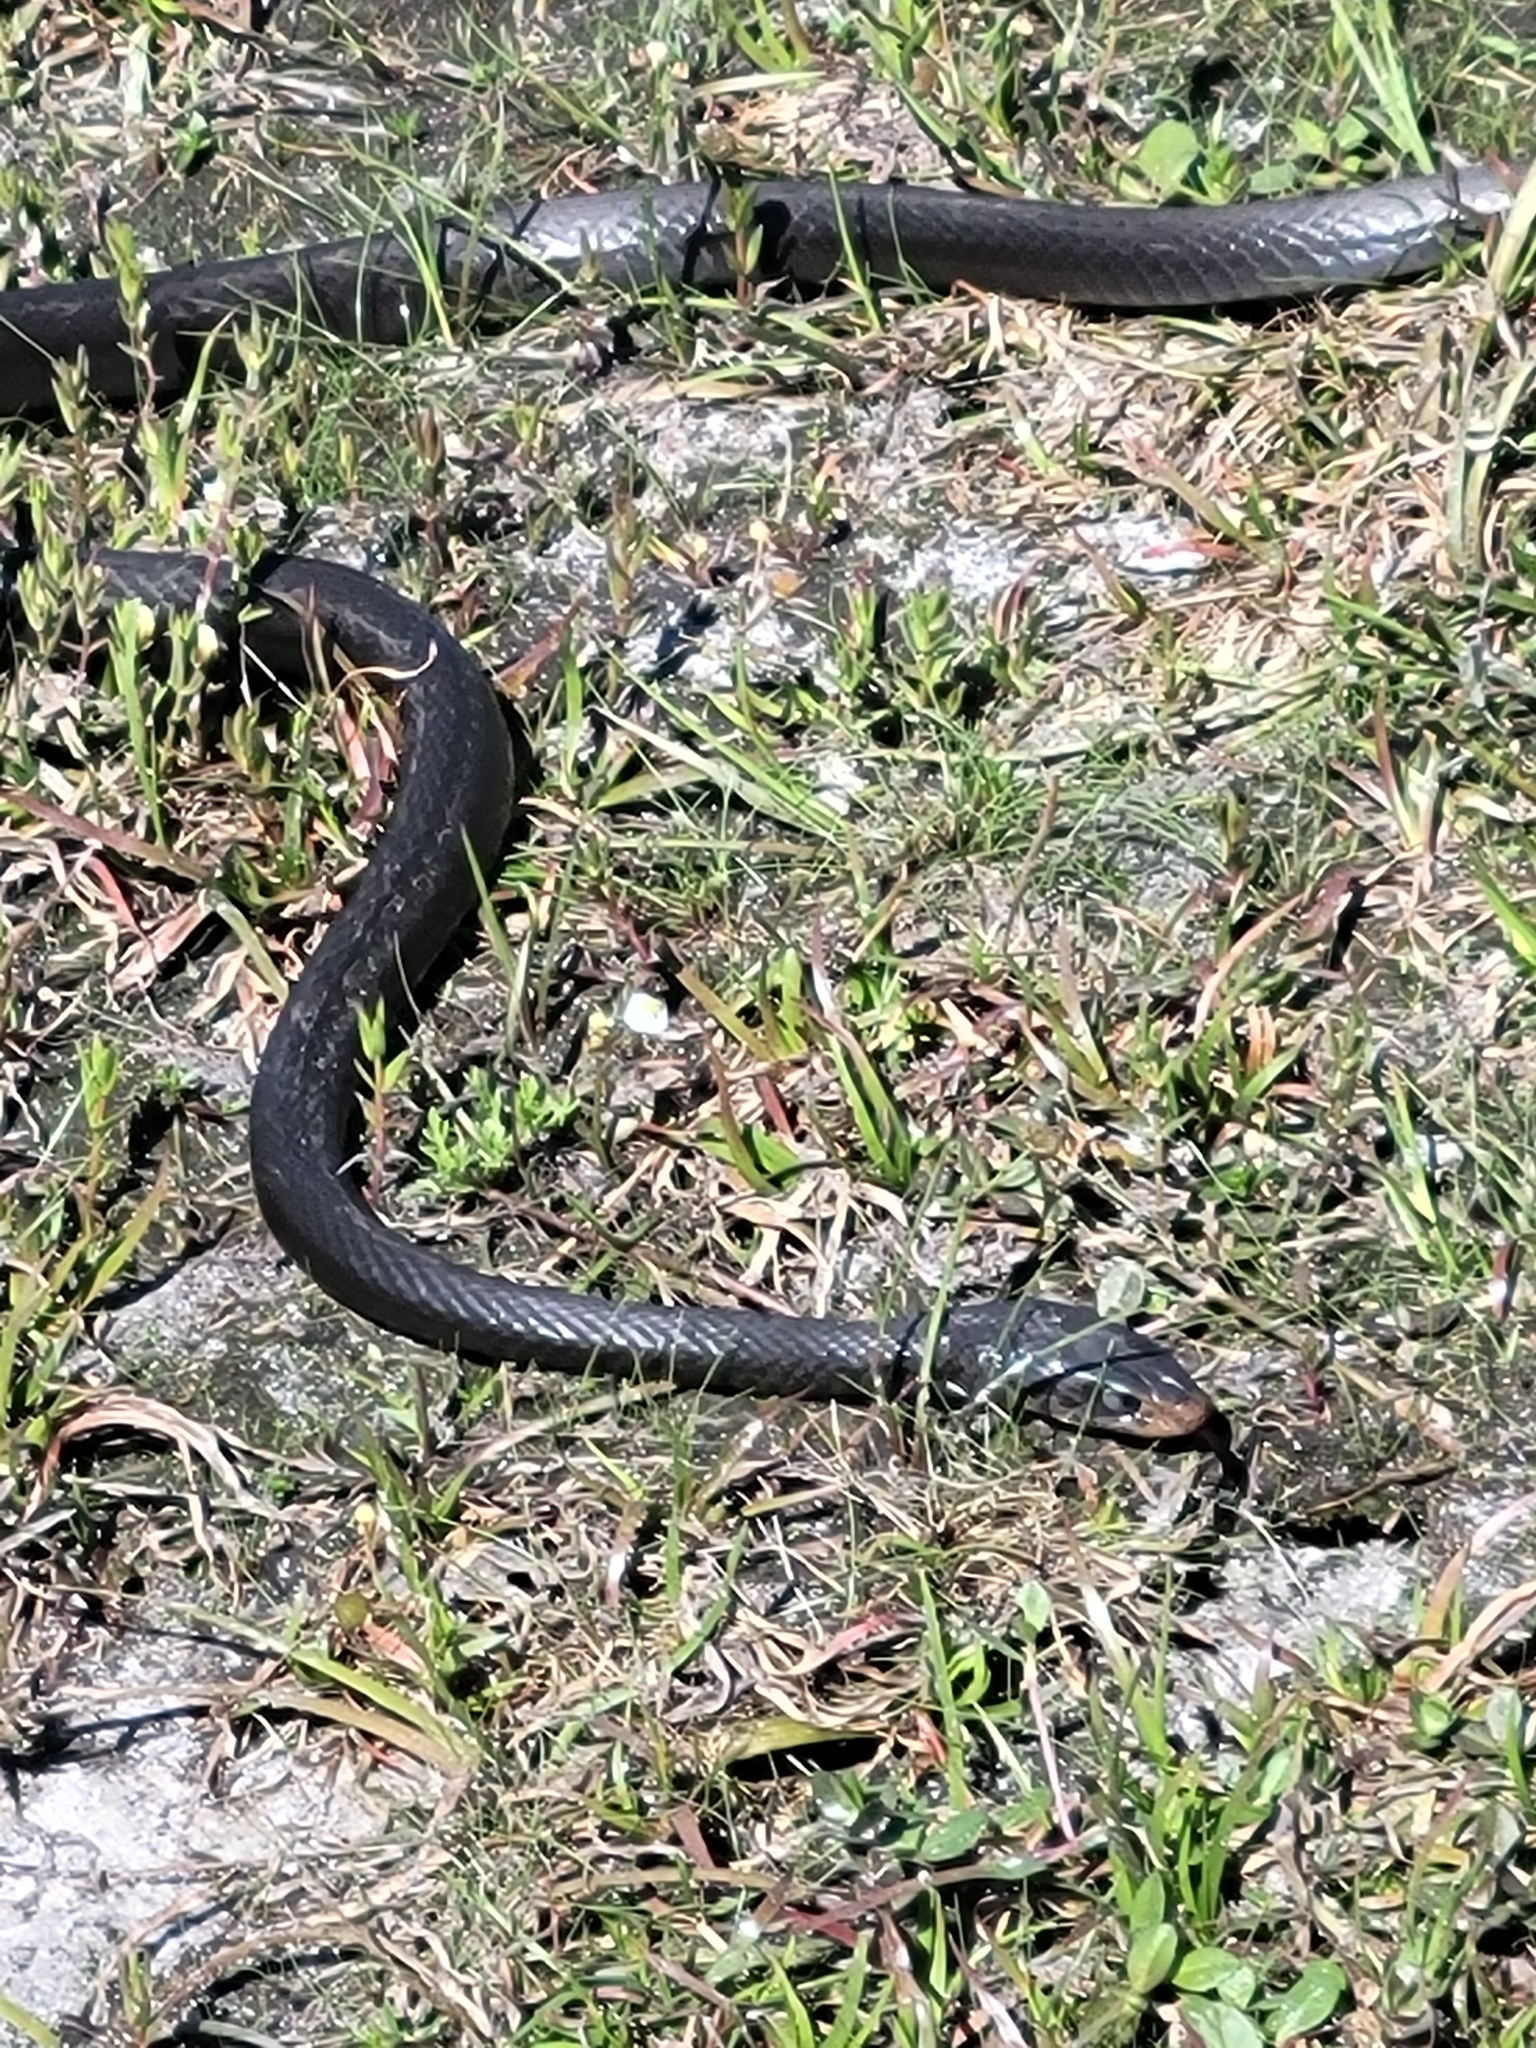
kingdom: Animalia
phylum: Chordata
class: Squamata
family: Colubridae
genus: Coluber
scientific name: Coluber constrictor
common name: Eastern racer
